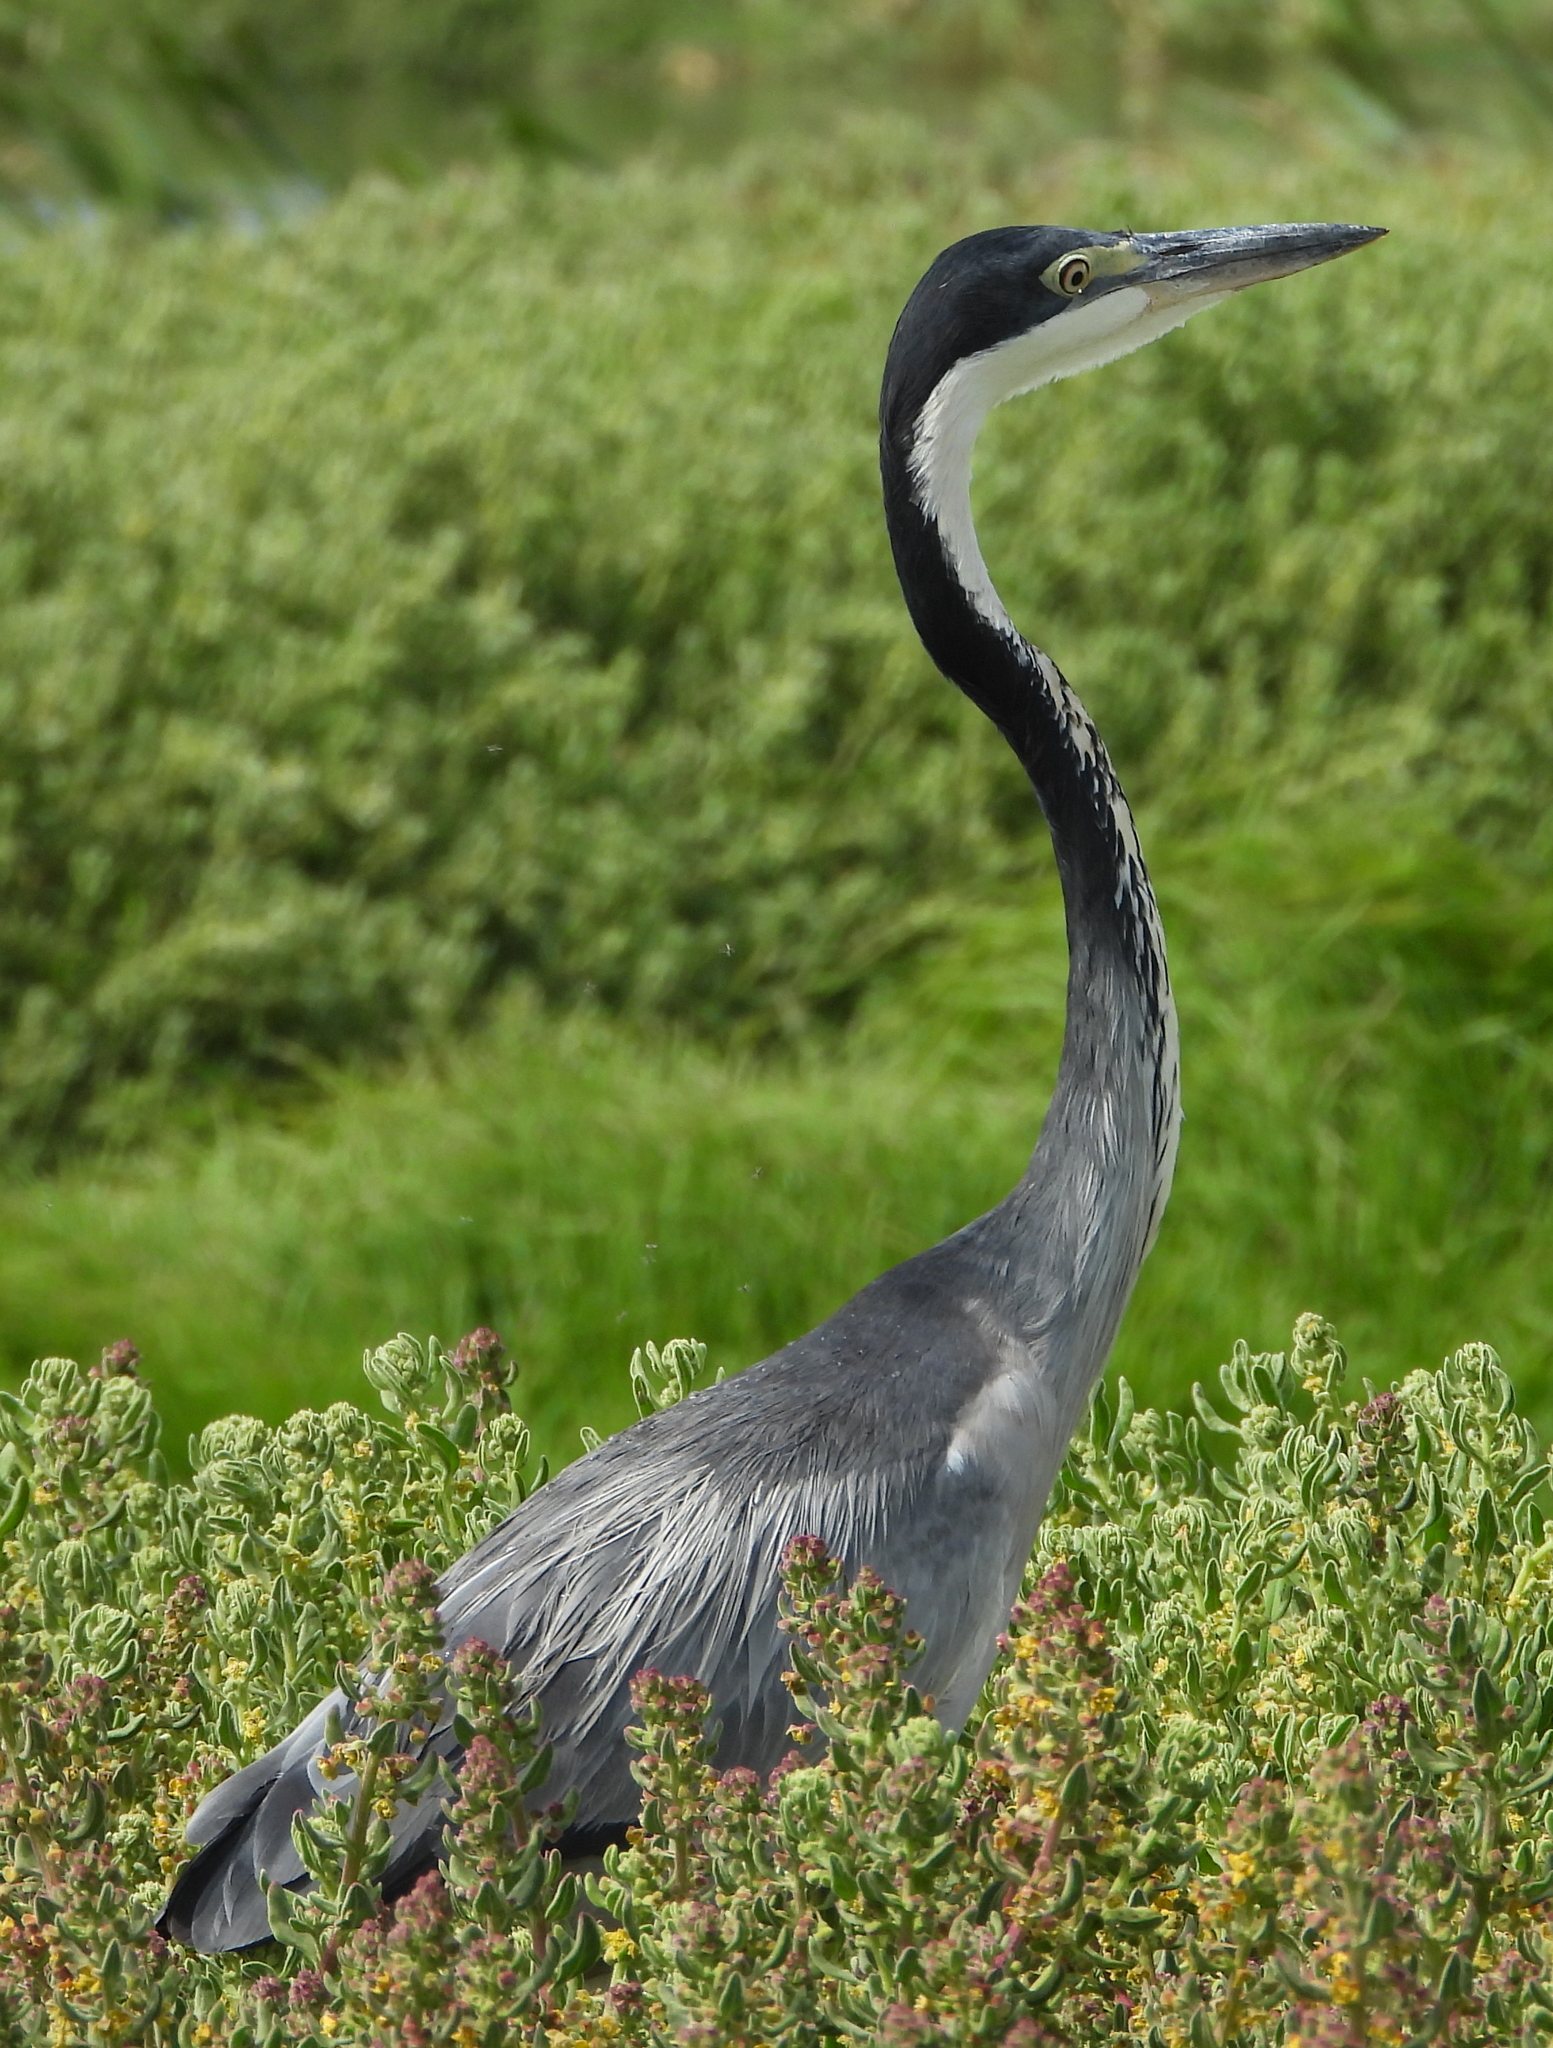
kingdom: Animalia
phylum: Chordata
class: Aves
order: Pelecaniformes
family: Ardeidae
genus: Ardea
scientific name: Ardea melanocephala
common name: Black-headed heron
